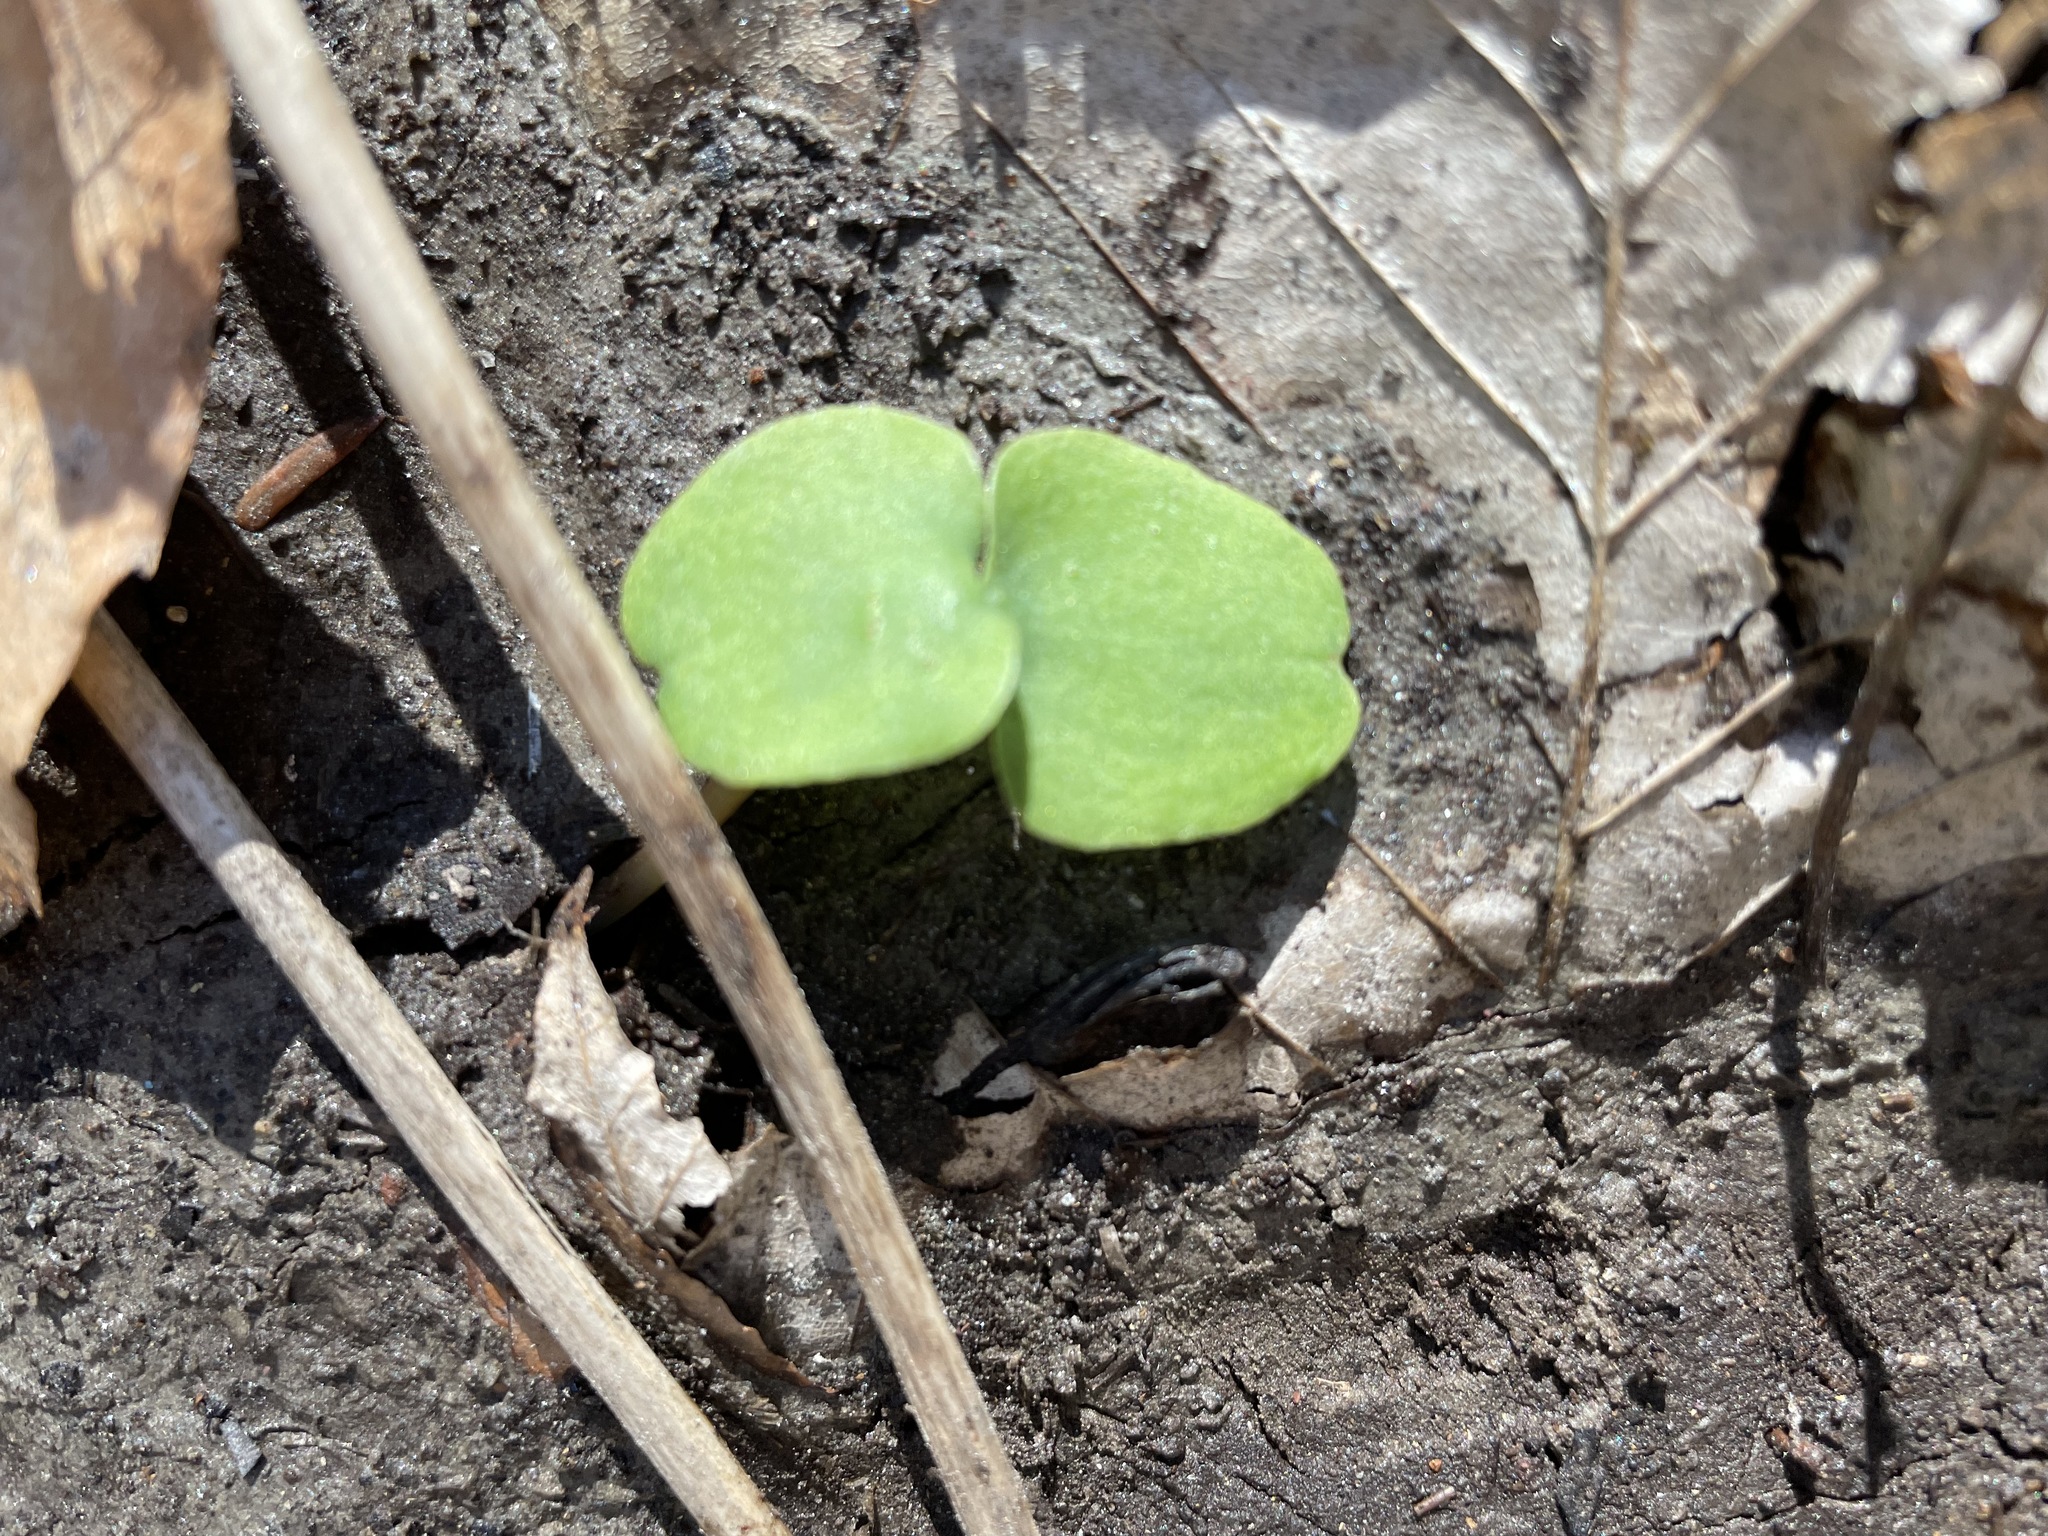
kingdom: Plantae
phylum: Tracheophyta
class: Magnoliopsida
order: Ericales
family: Balsaminaceae
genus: Impatiens
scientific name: Impatiens
